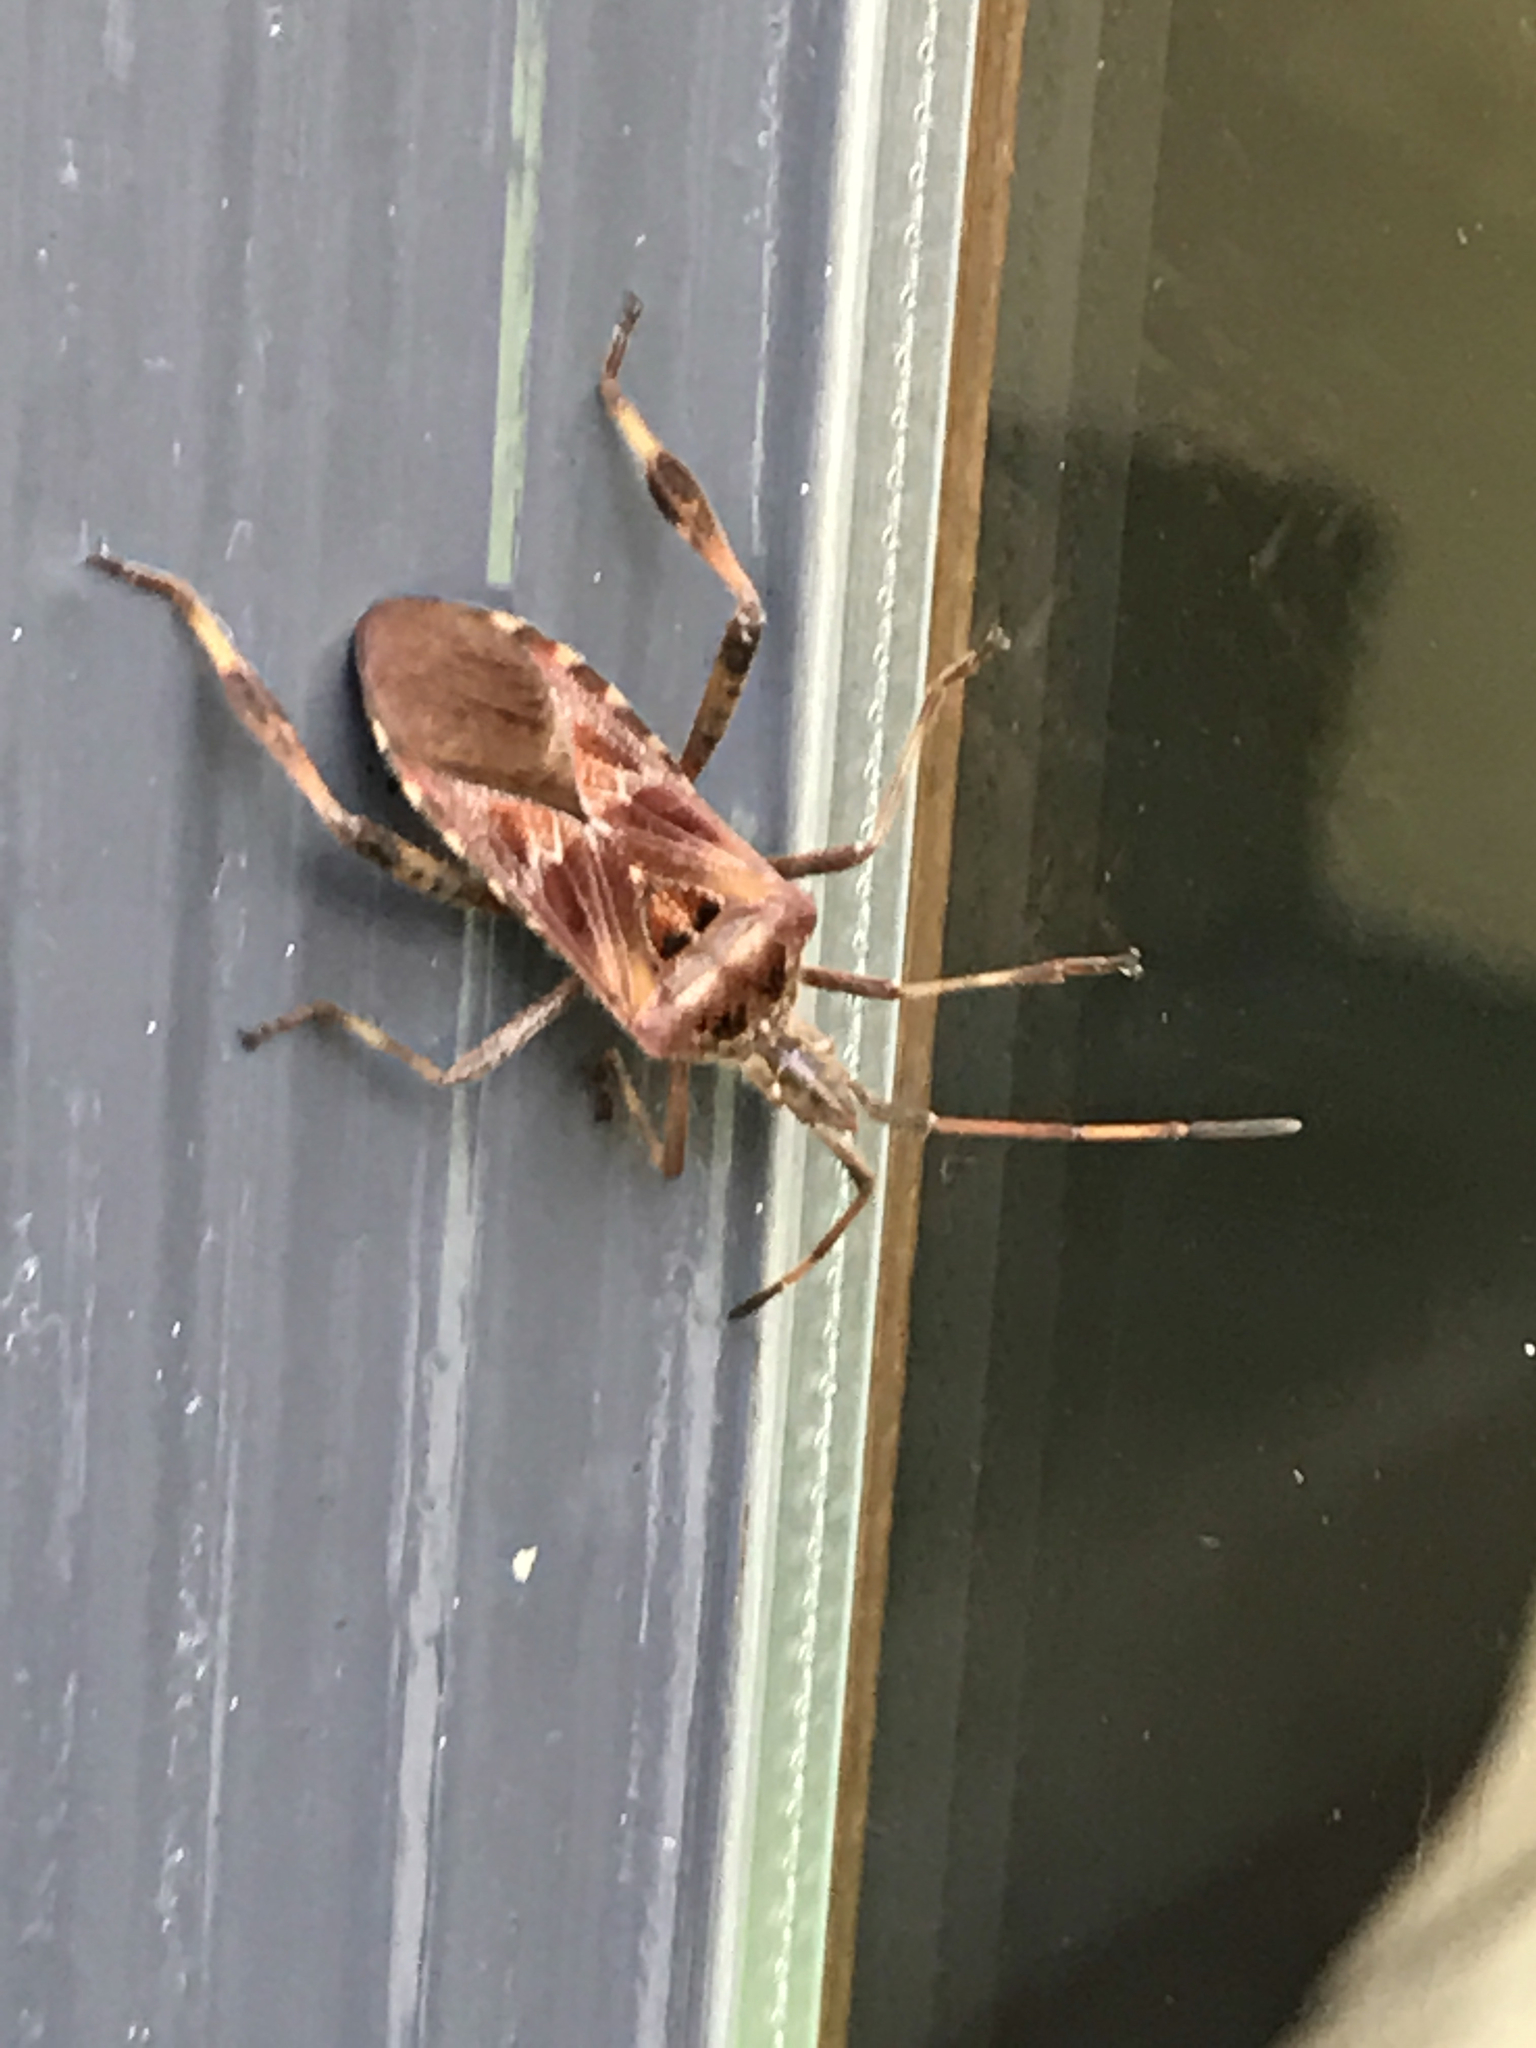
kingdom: Animalia
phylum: Arthropoda
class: Insecta
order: Hemiptera
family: Coreidae
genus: Leptoglossus
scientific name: Leptoglossus occidentalis
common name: Western conifer-seed bug
